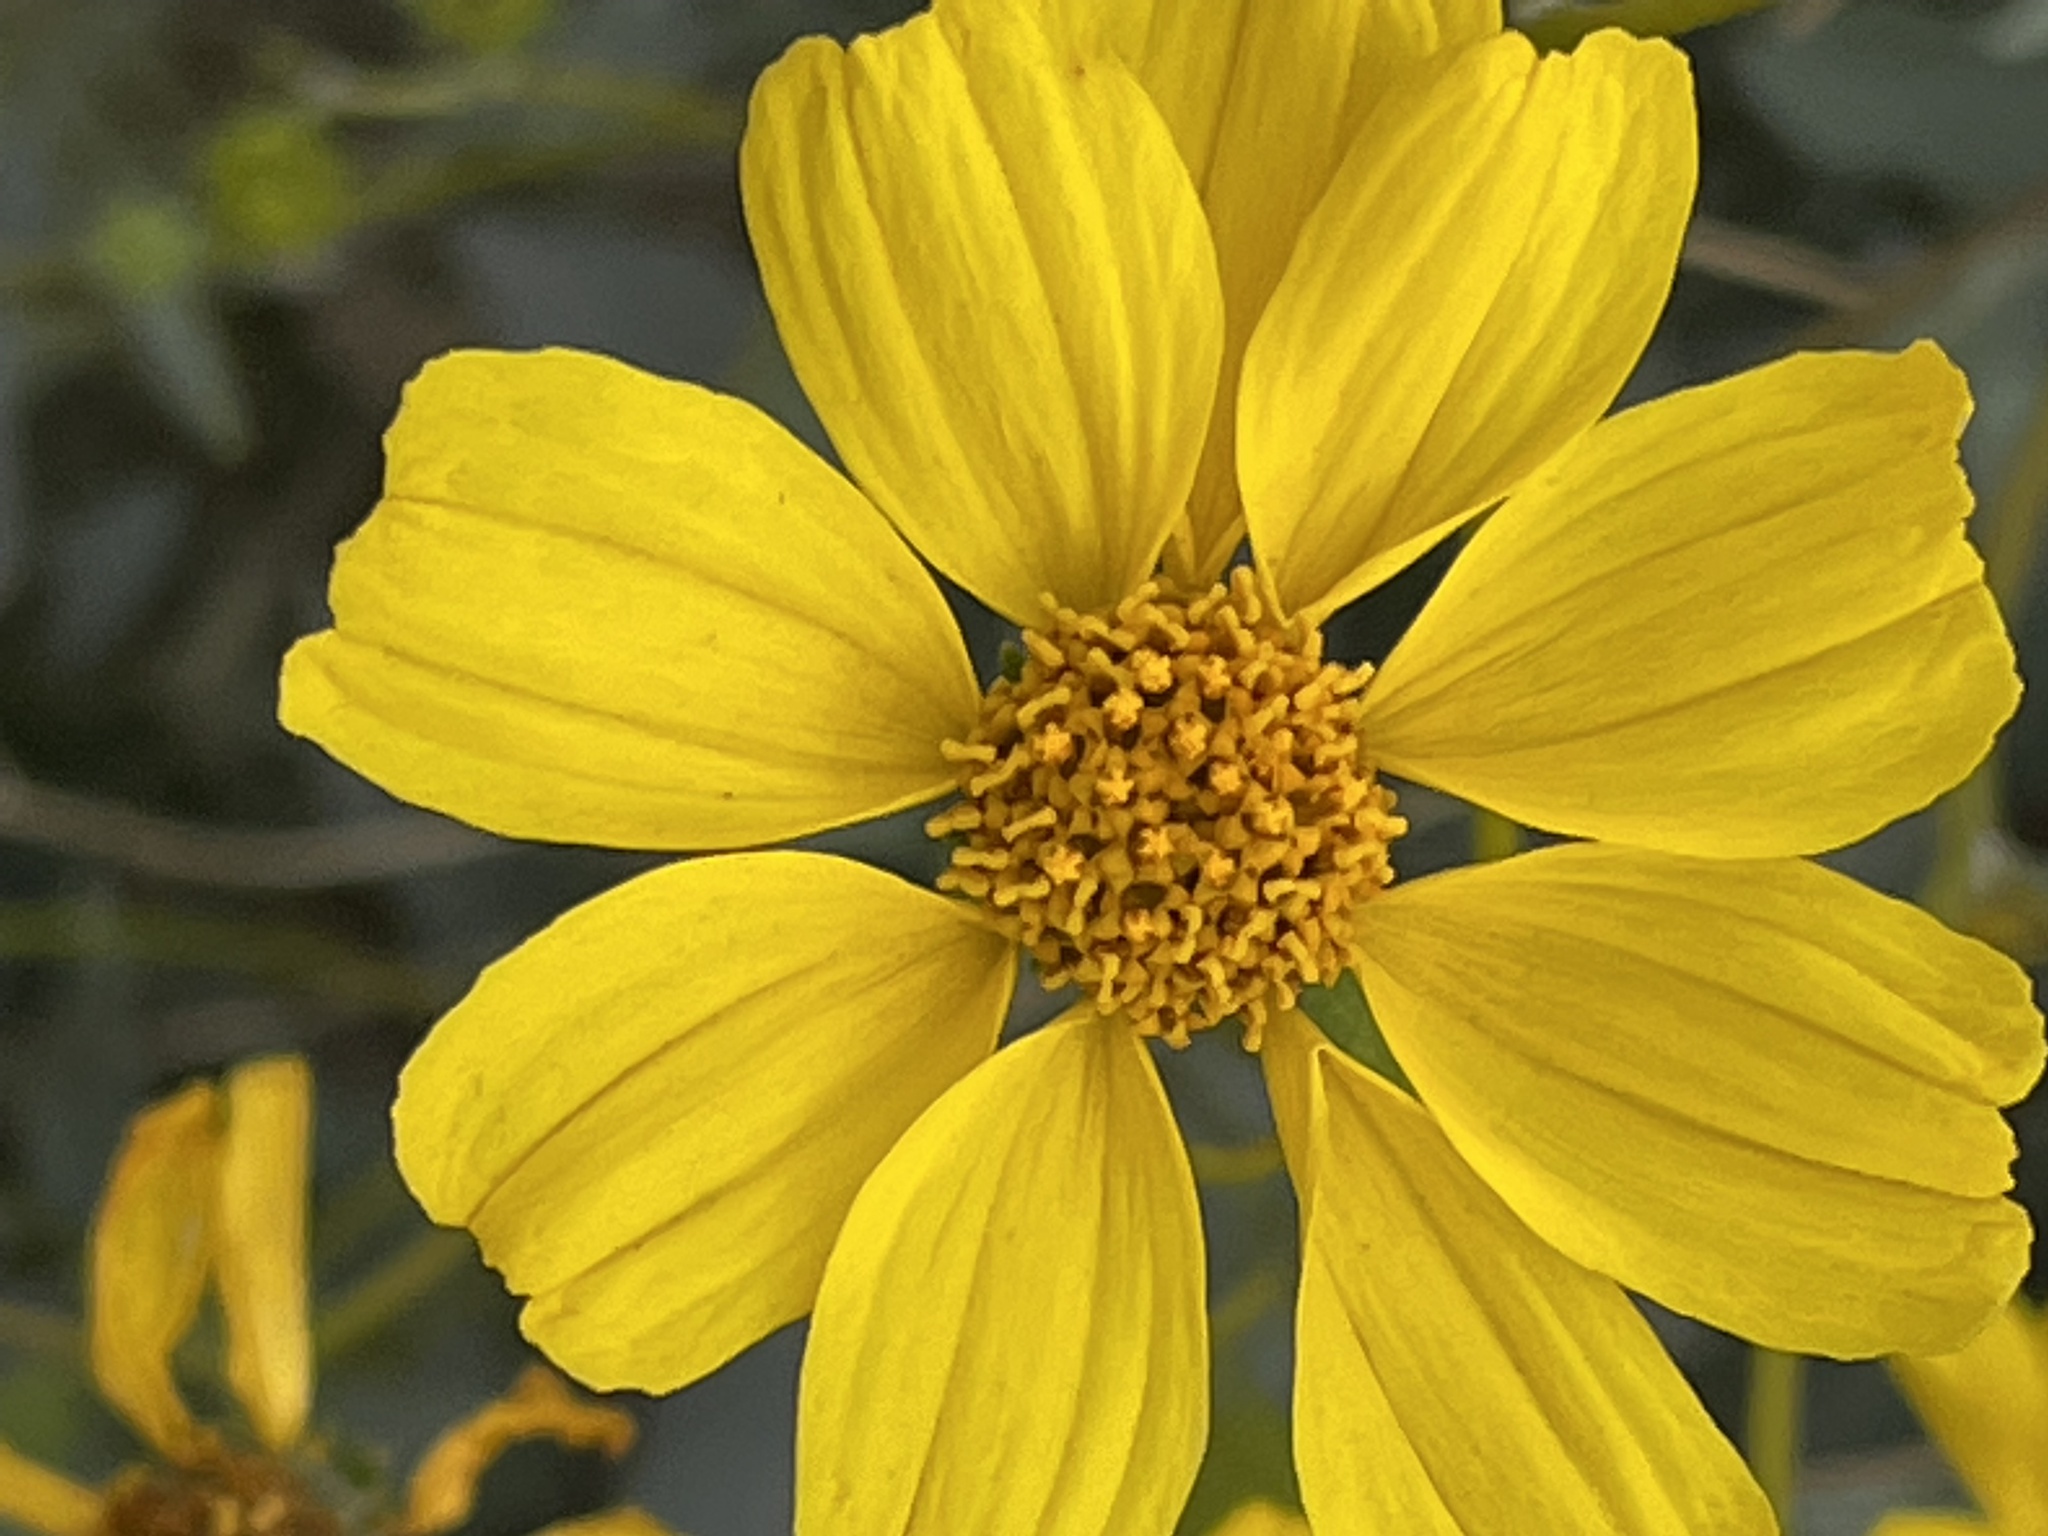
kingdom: Plantae
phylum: Tracheophyta
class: Magnoliopsida
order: Asterales
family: Asteraceae
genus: Encelia
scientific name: Encelia farinosa
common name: Brittlebush
